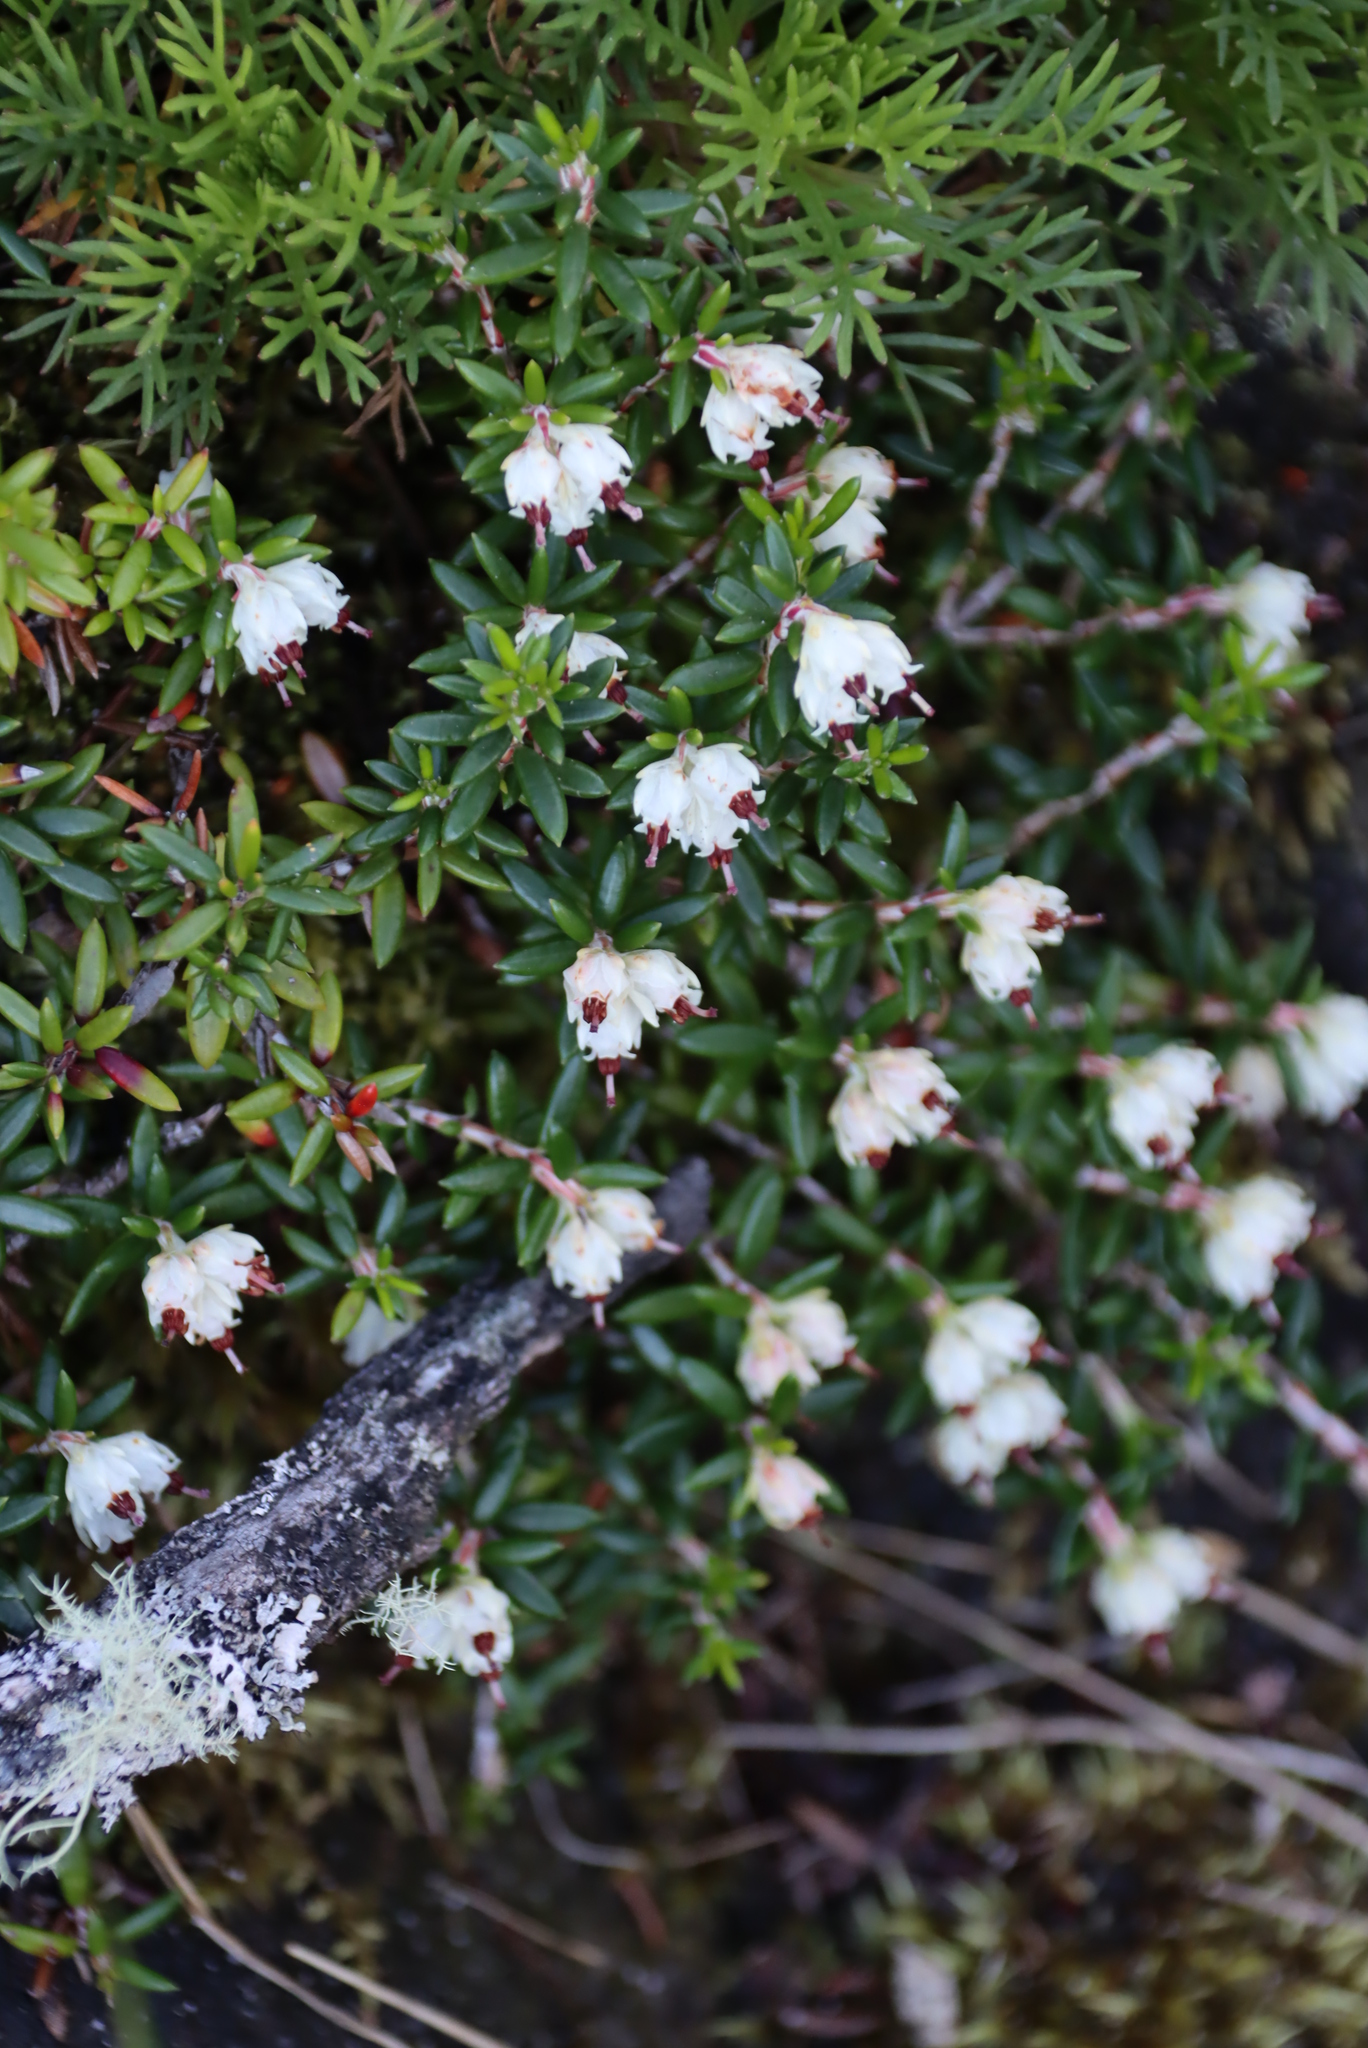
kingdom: Plantae
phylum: Tracheophyta
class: Magnoliopsida
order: Ericales
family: Ericaceae
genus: Erica
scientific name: Erica petiolaris
